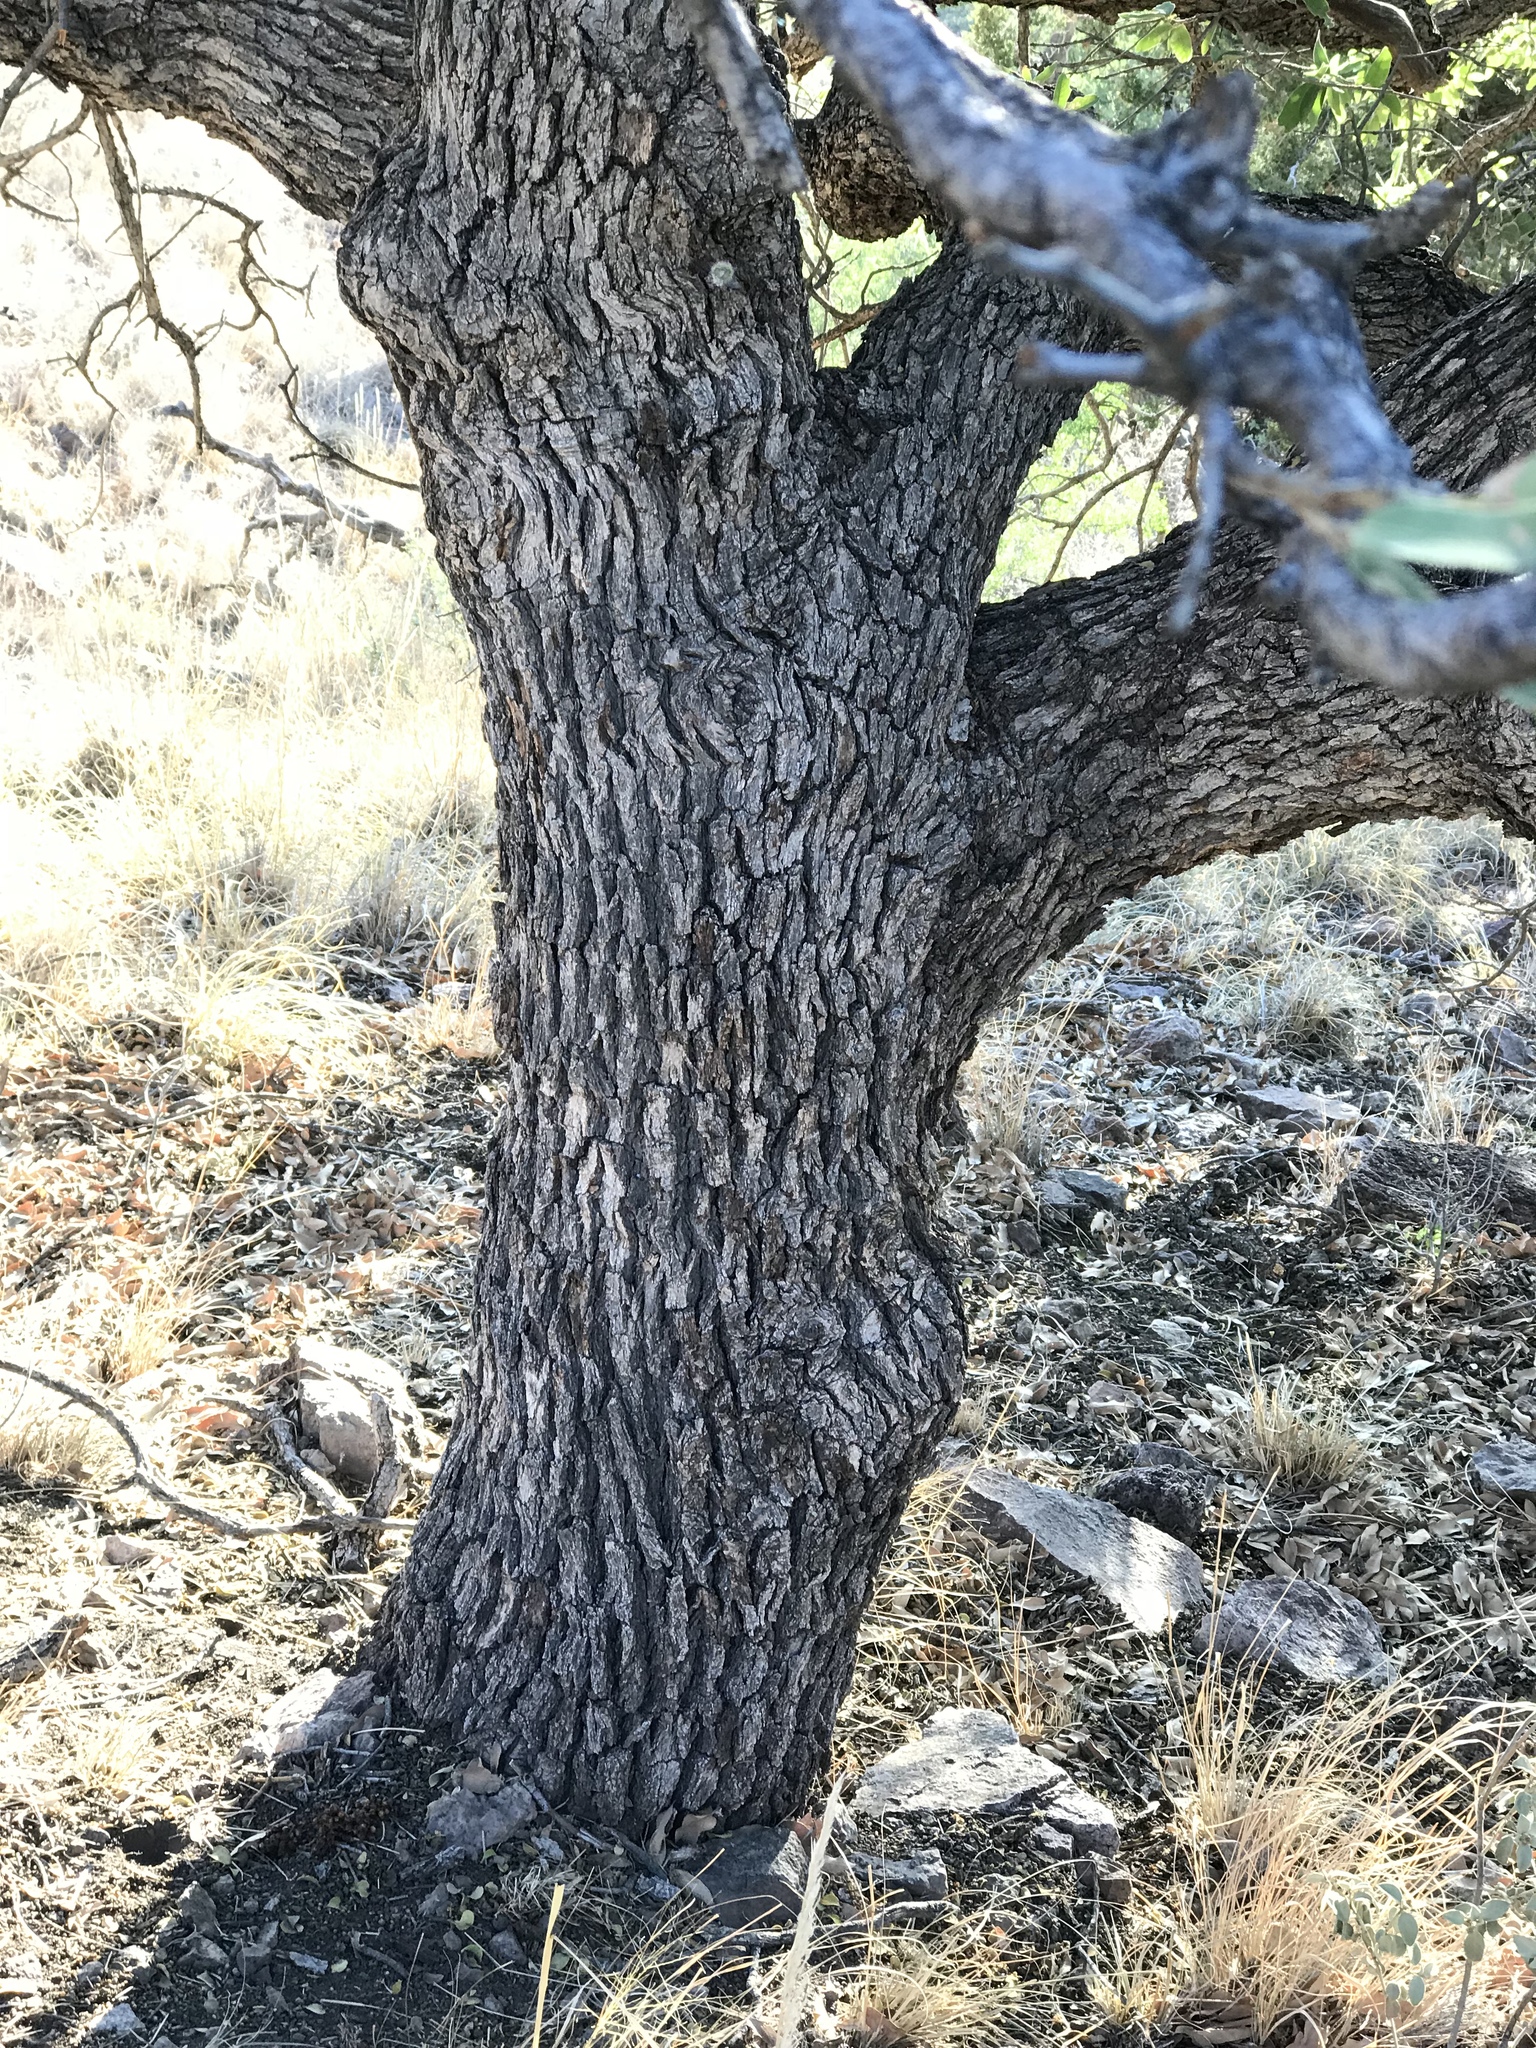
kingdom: Plantae
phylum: Tracheophyta
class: Magnoliopsida
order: Fagales
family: Fagaceae
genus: Quercus
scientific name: Quercus grisea
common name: Gray oak
